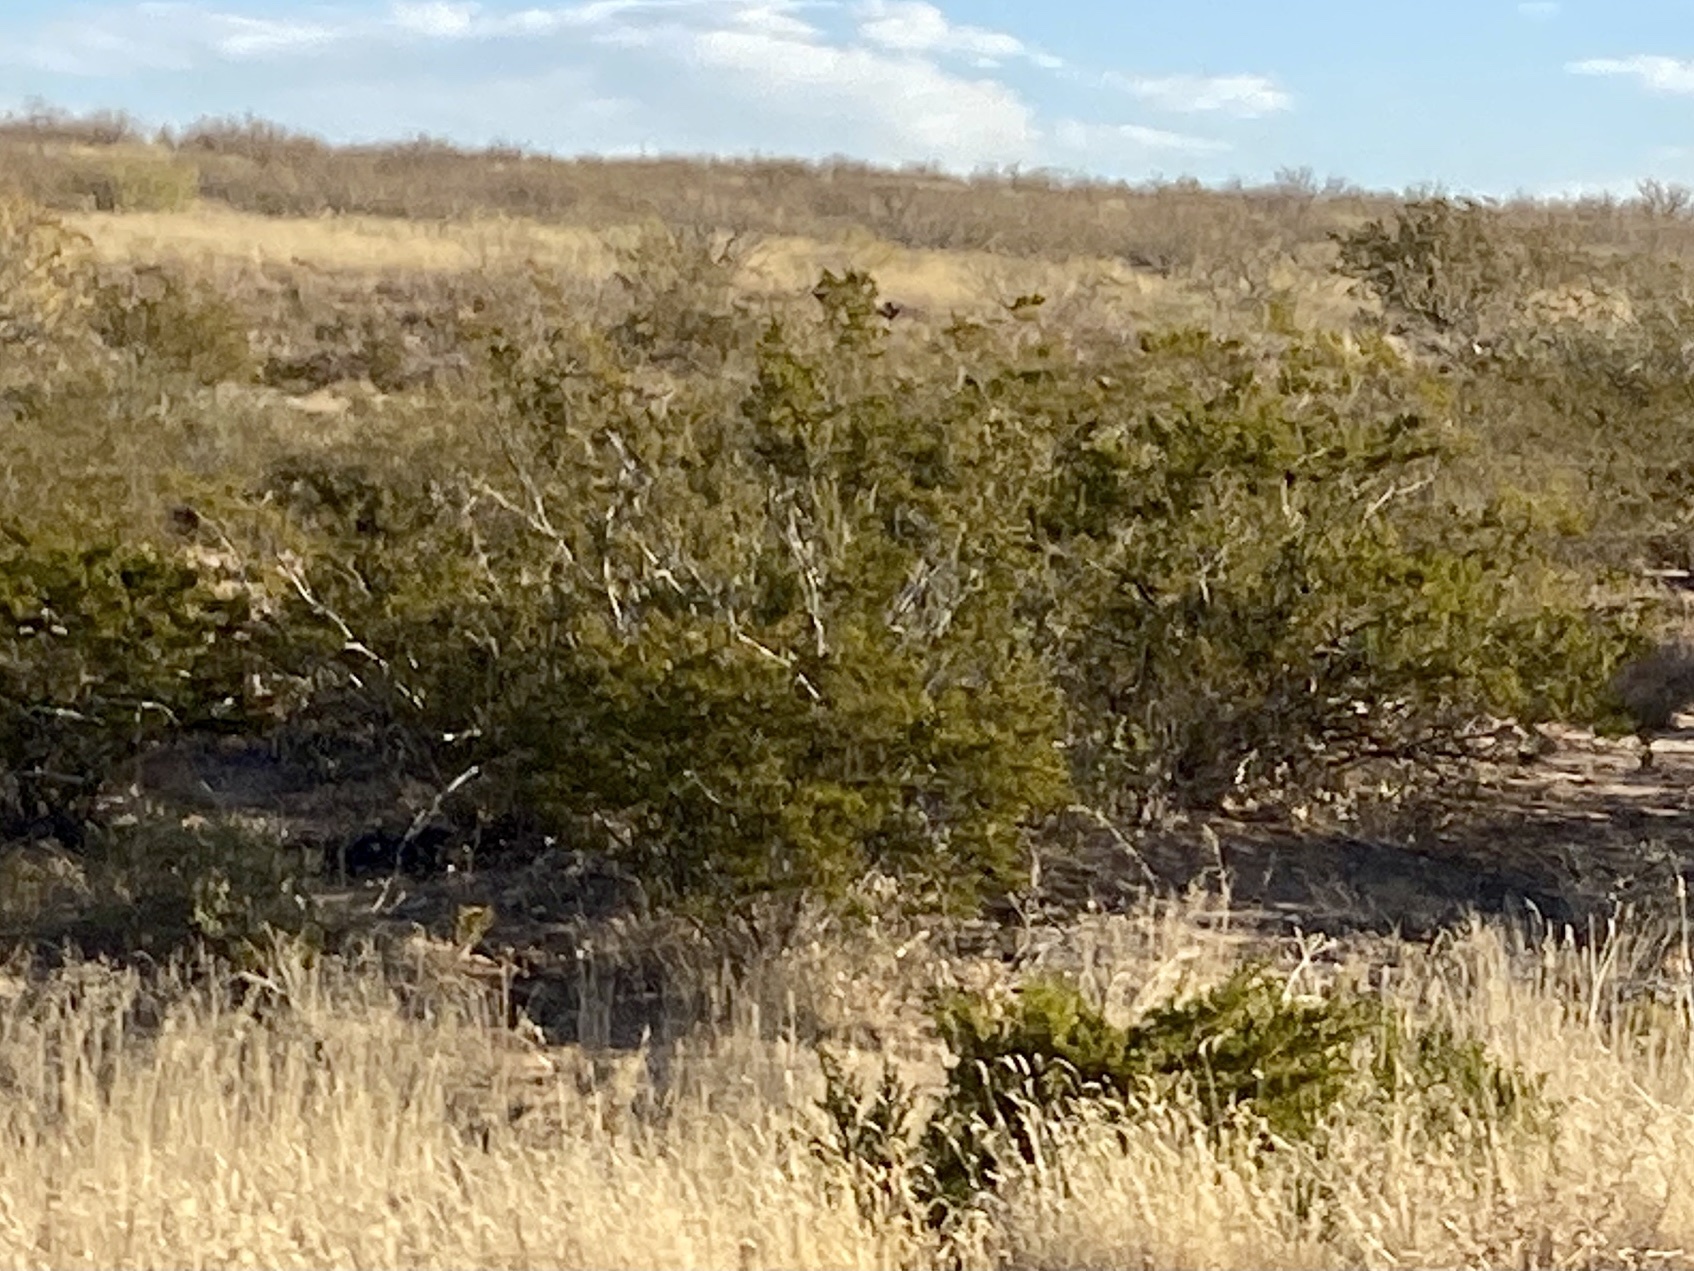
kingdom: Plantae
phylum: Tracheophyta
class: Magnoliopsida
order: Zygophyllales
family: Zygophyllaceae
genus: Larrea
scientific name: Larrea tridentata
